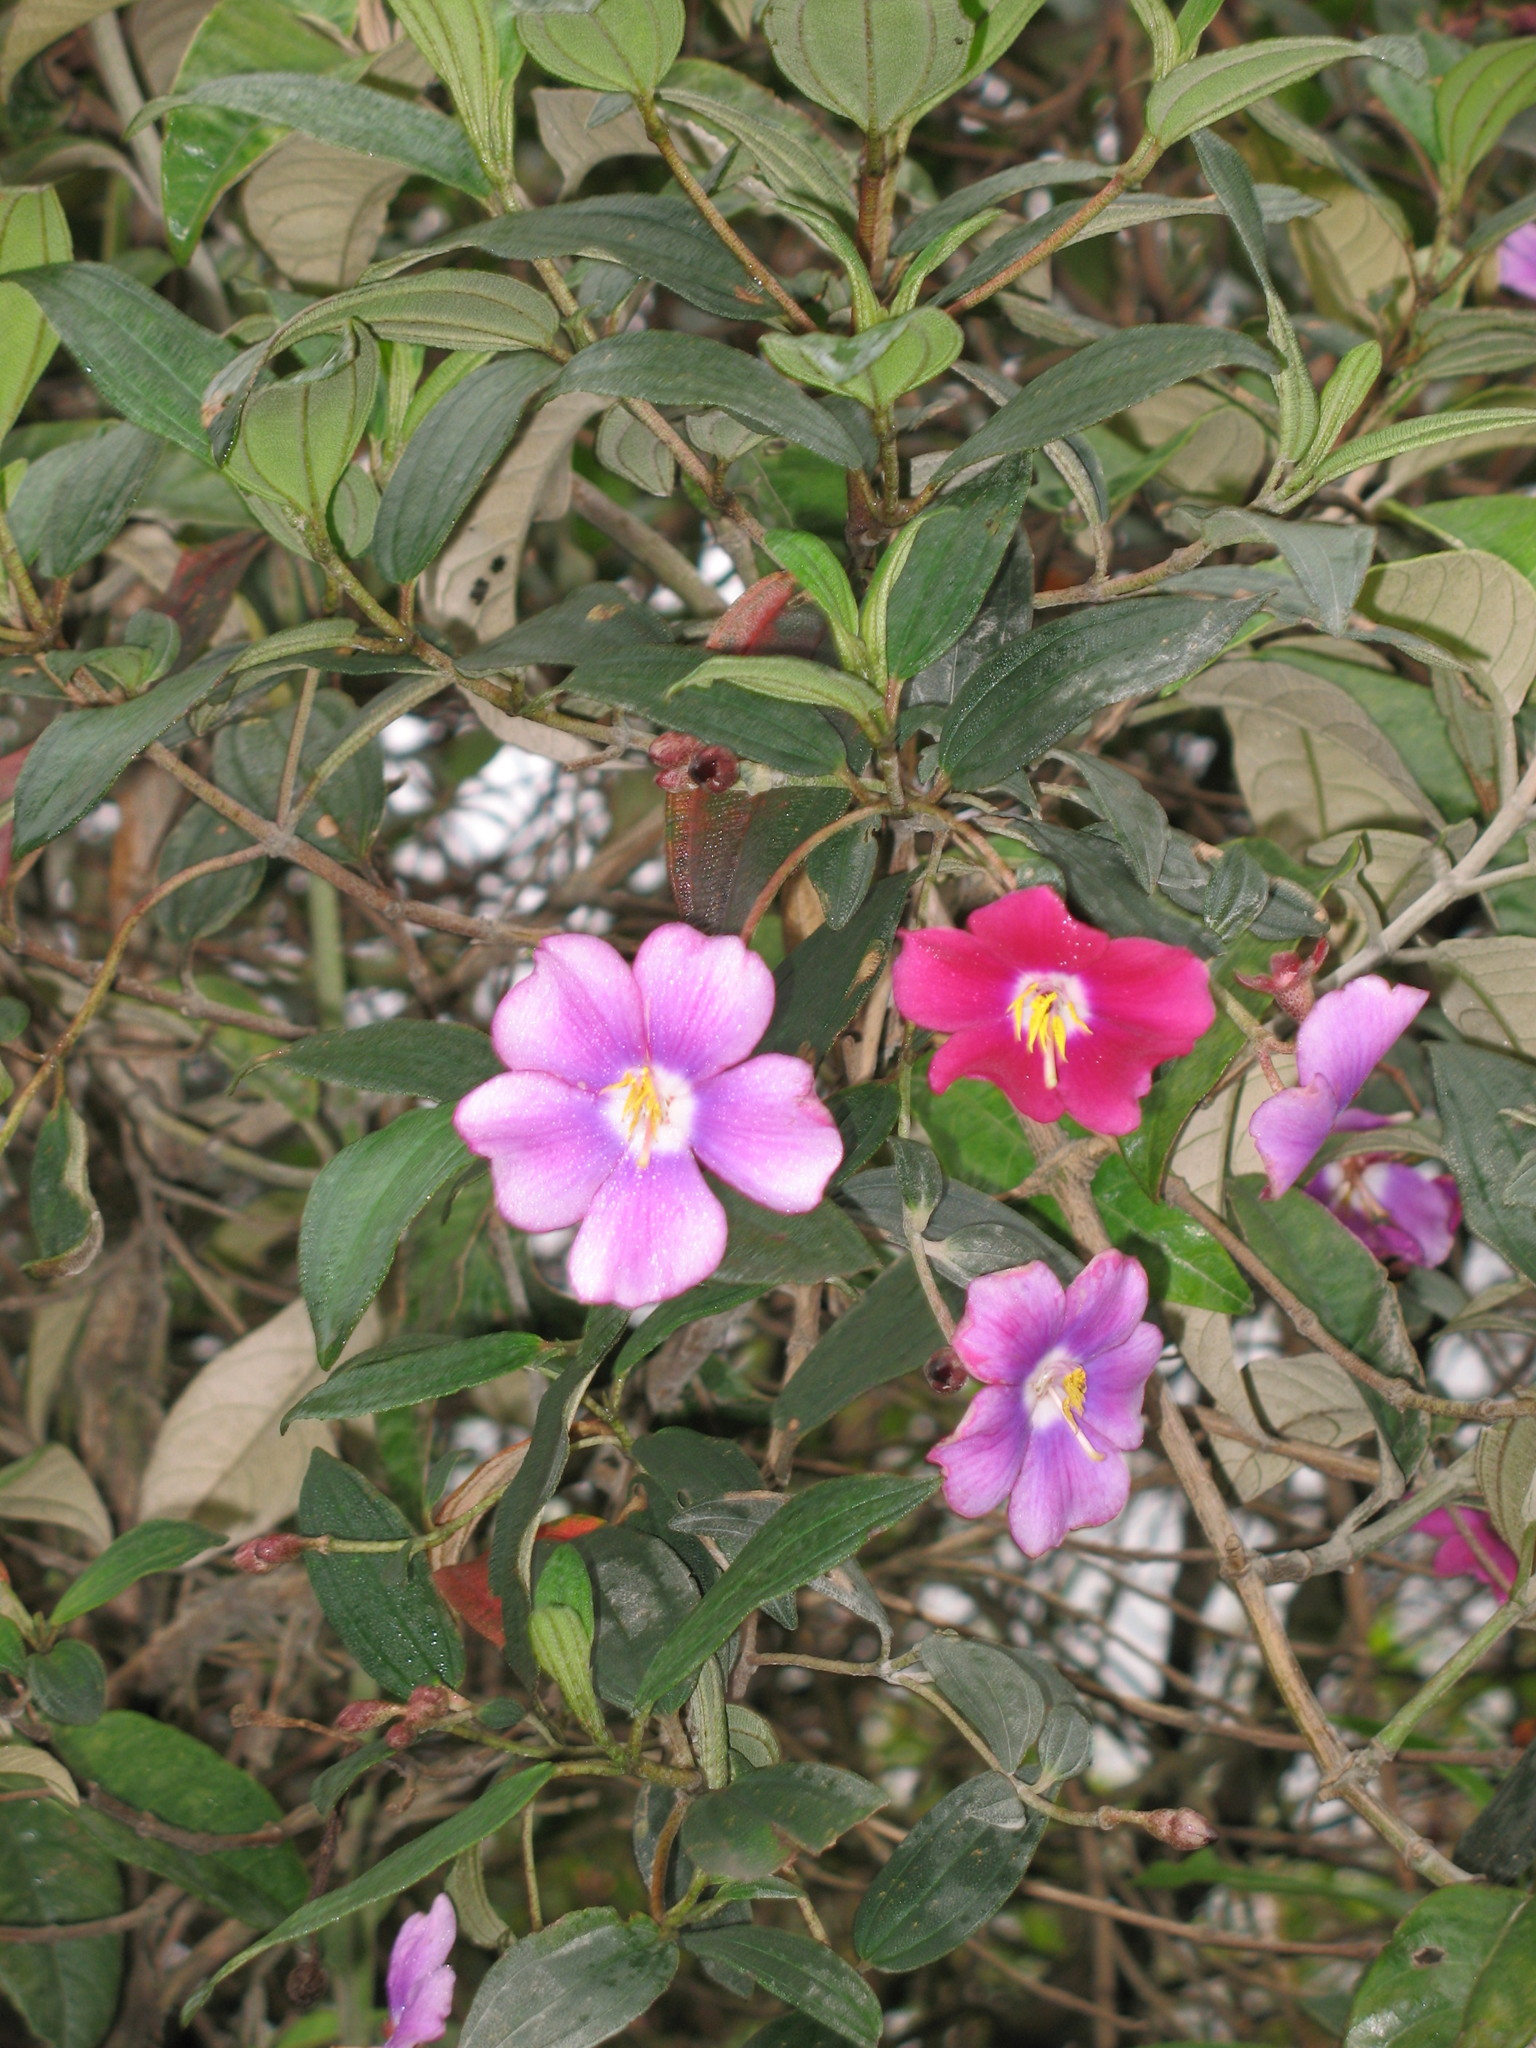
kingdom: Plantae
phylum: Tracheophyta
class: Magnoliopsida
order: Myrtales
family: Melastomataceae
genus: Andesanthus
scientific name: Andesanthus lepidotus
